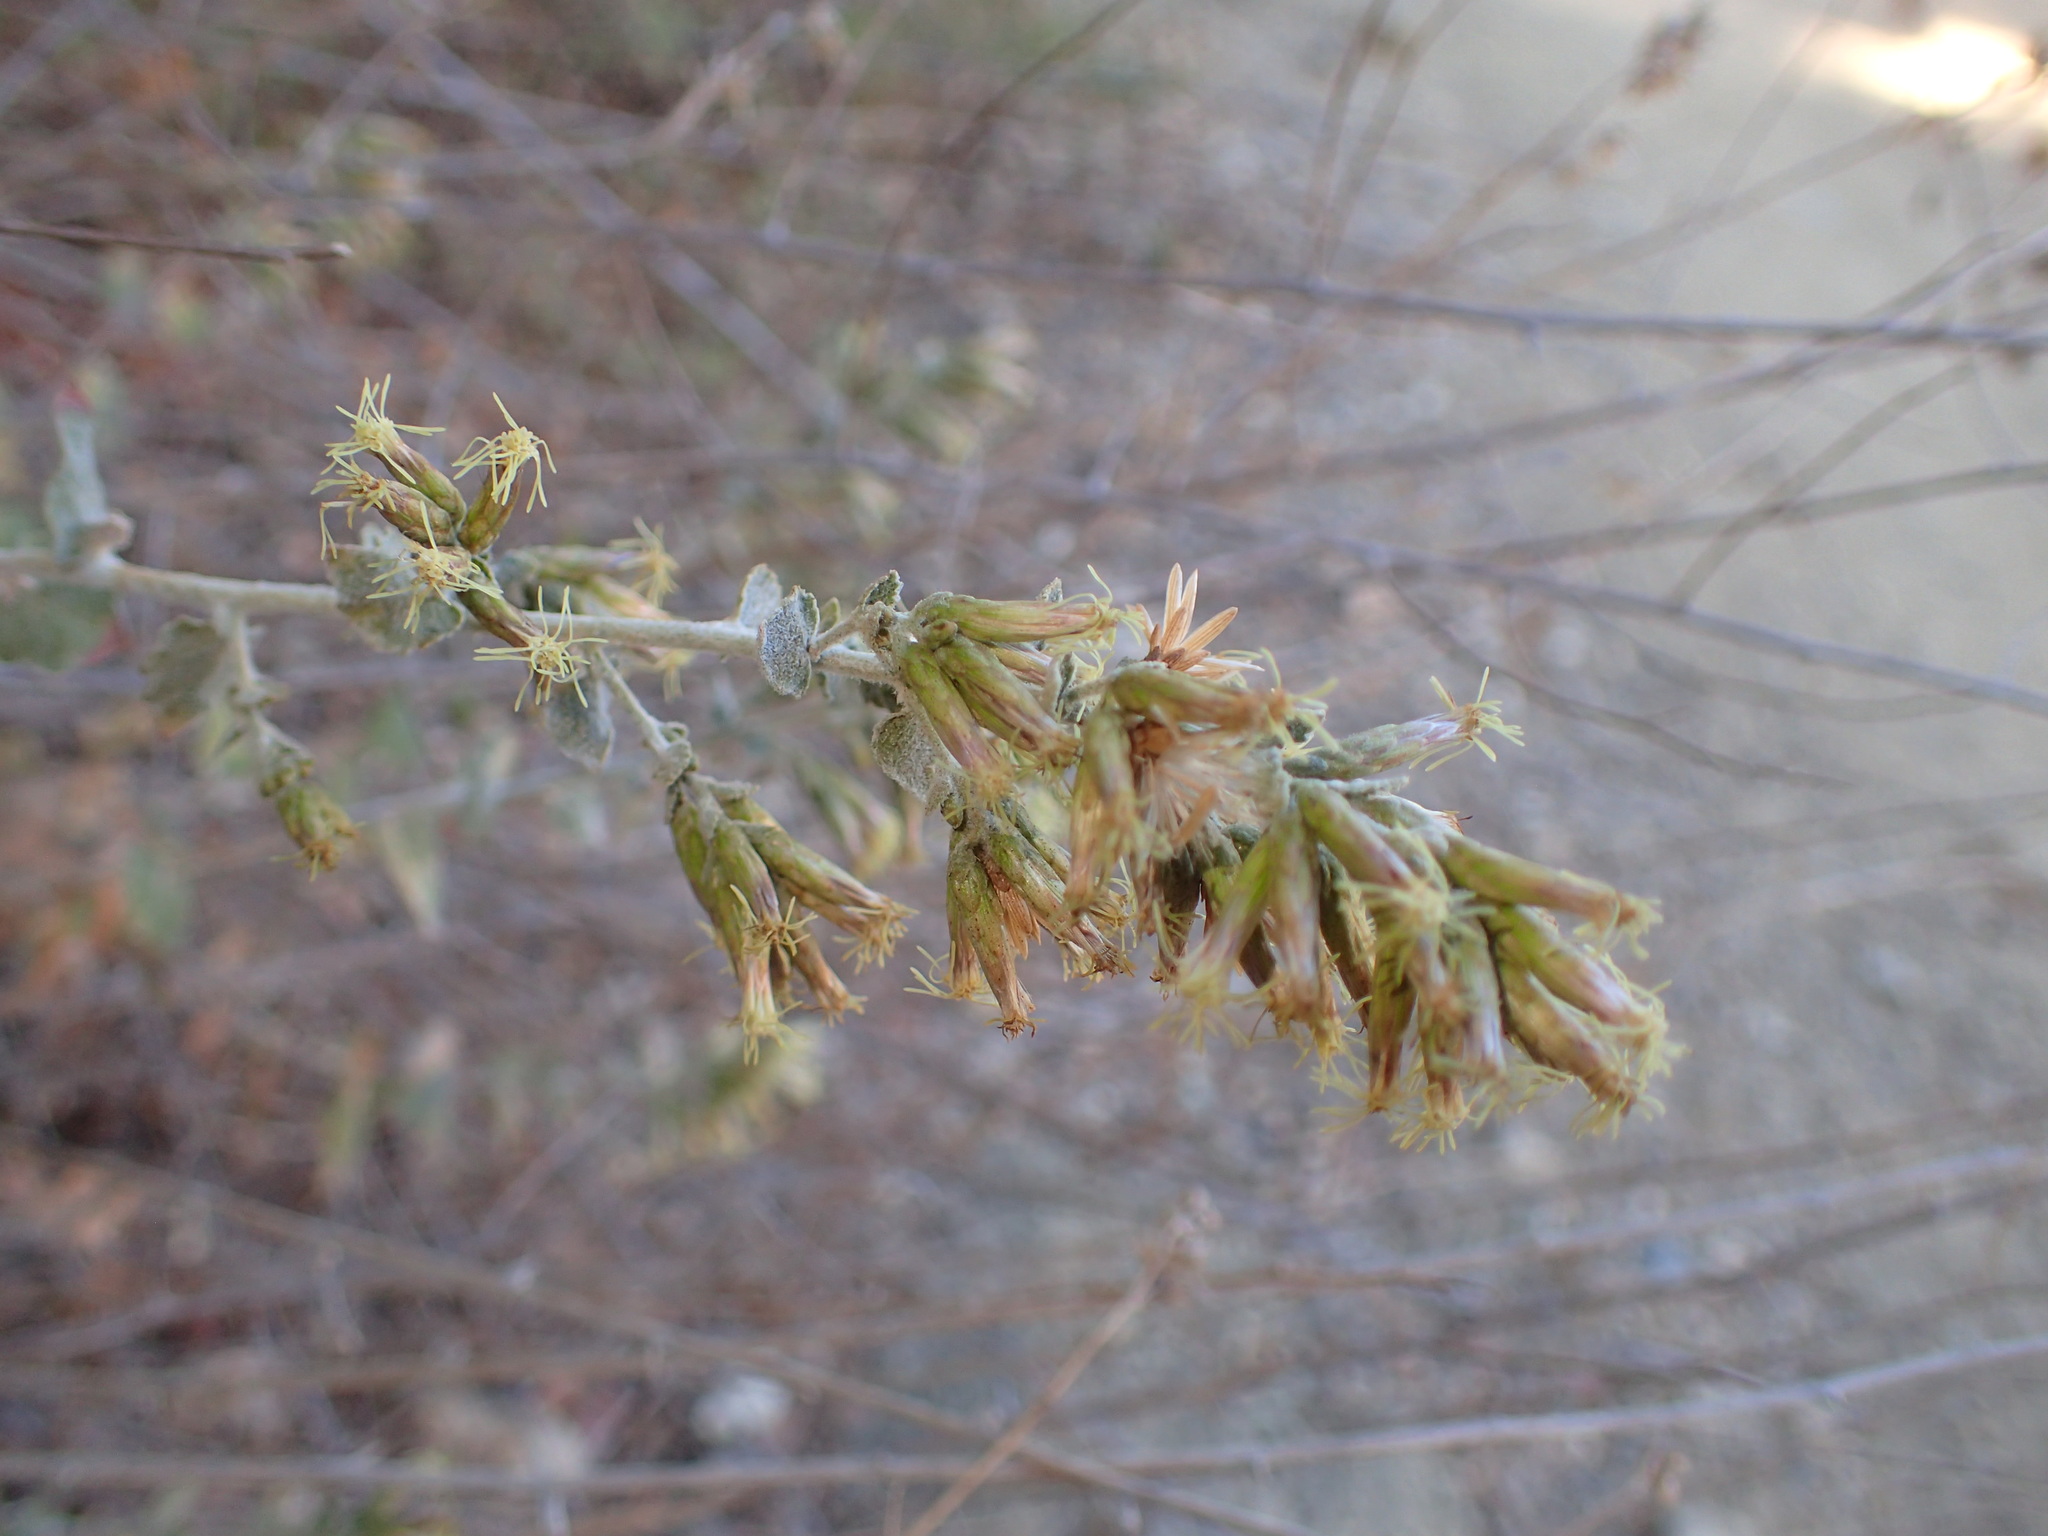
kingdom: Plantae
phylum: Tracheophyta
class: Magnoliopsida
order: Asterales
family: Asteraceae
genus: Brickellia
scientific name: Brickellia californica
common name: California brickellbush
